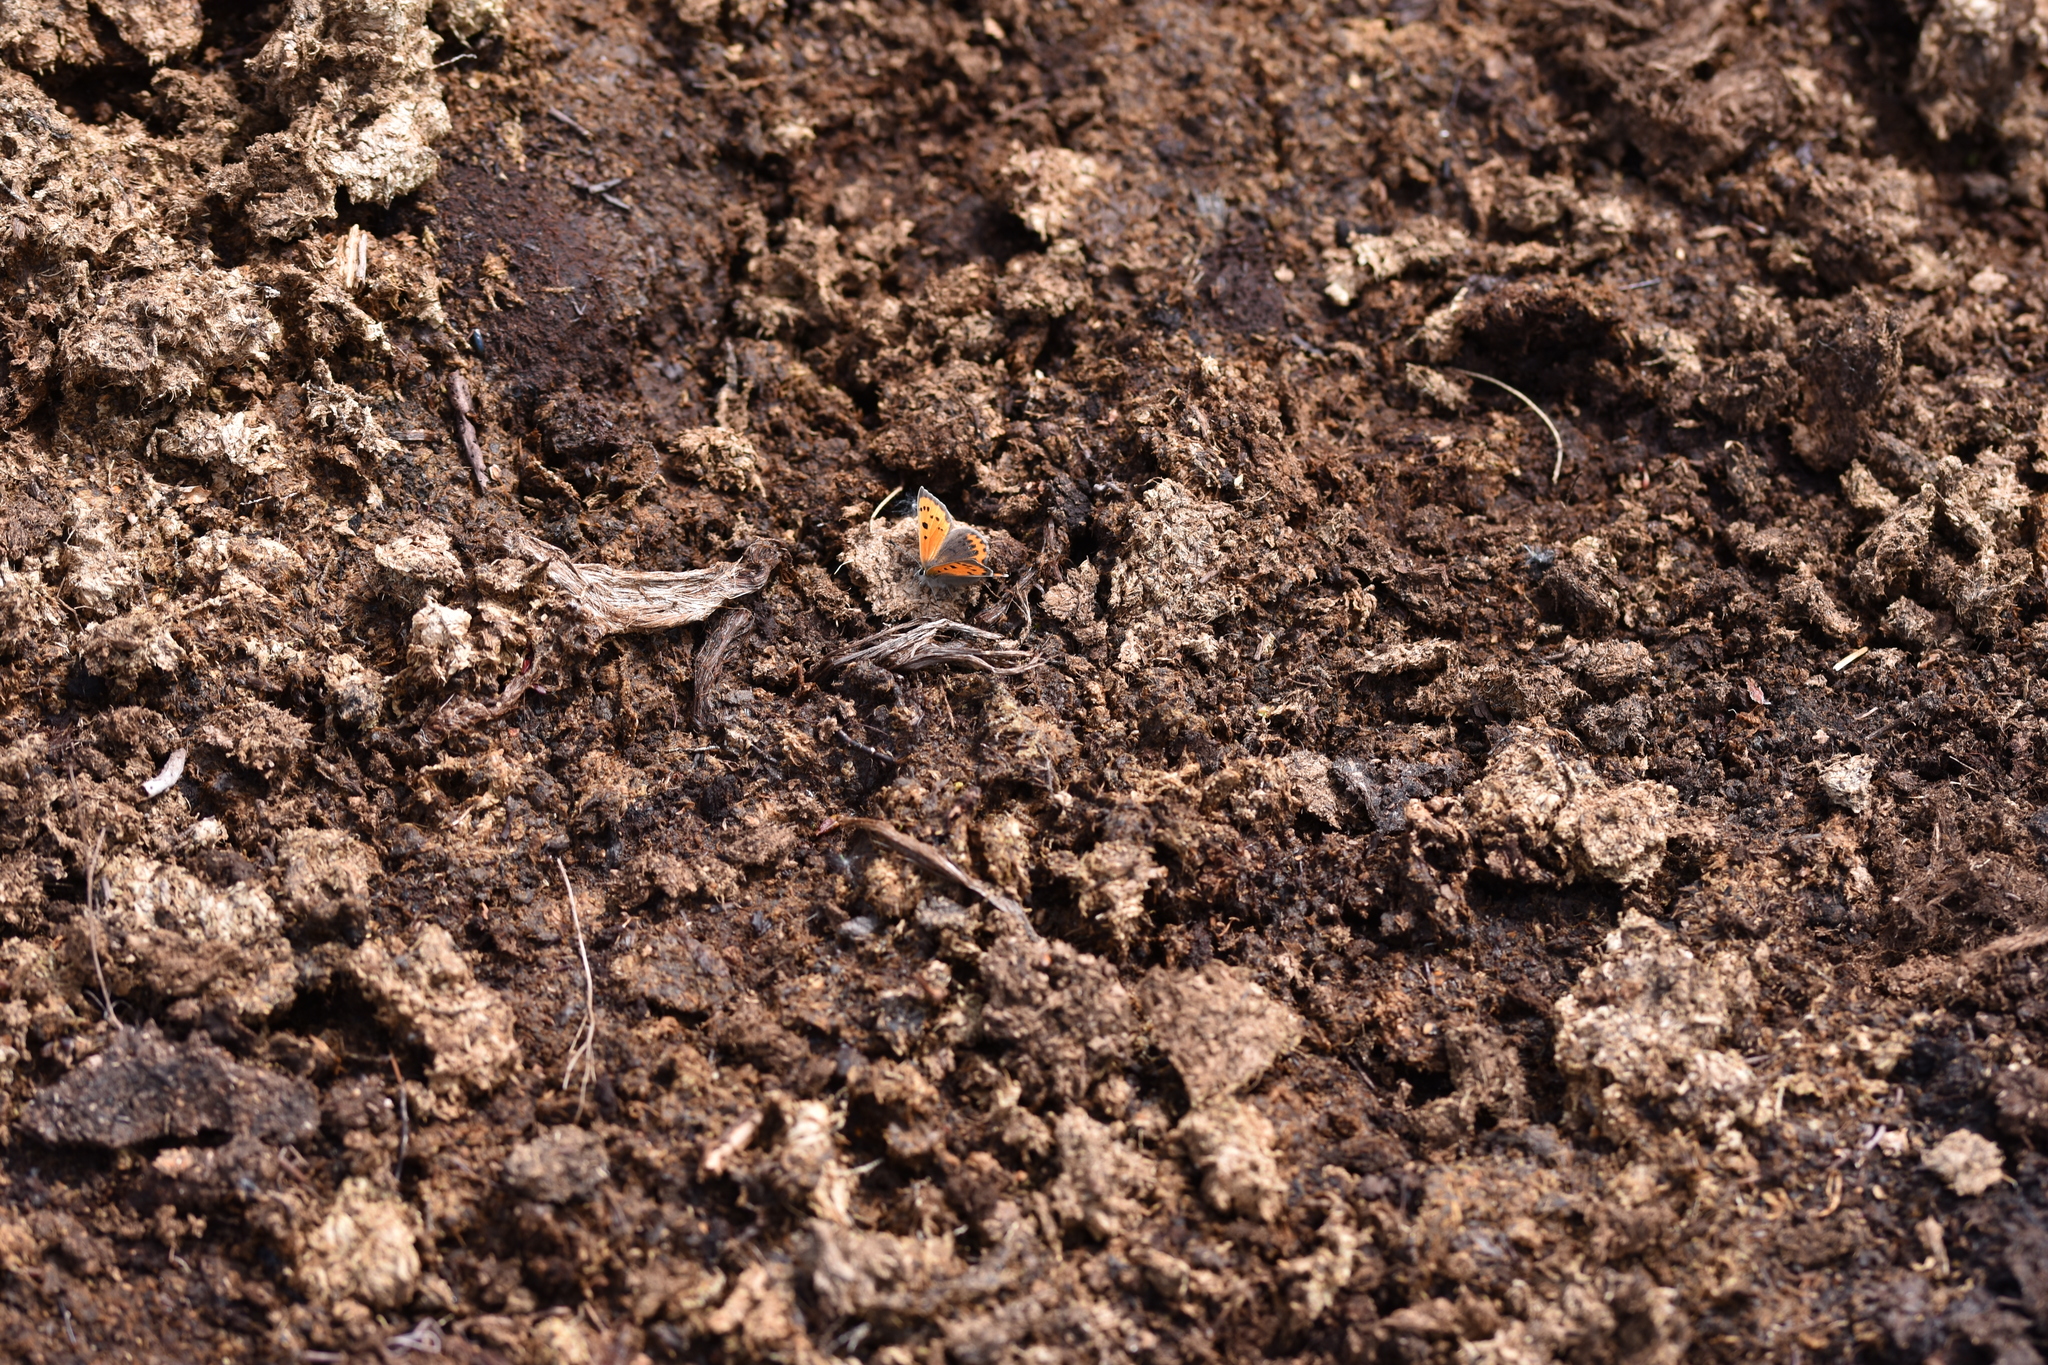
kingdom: Animalia
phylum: Arthropoda
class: Insecta
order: Lepidoptera
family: Lycaenidae
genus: Lycaena
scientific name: Lycaena phlaeas
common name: Small copper
